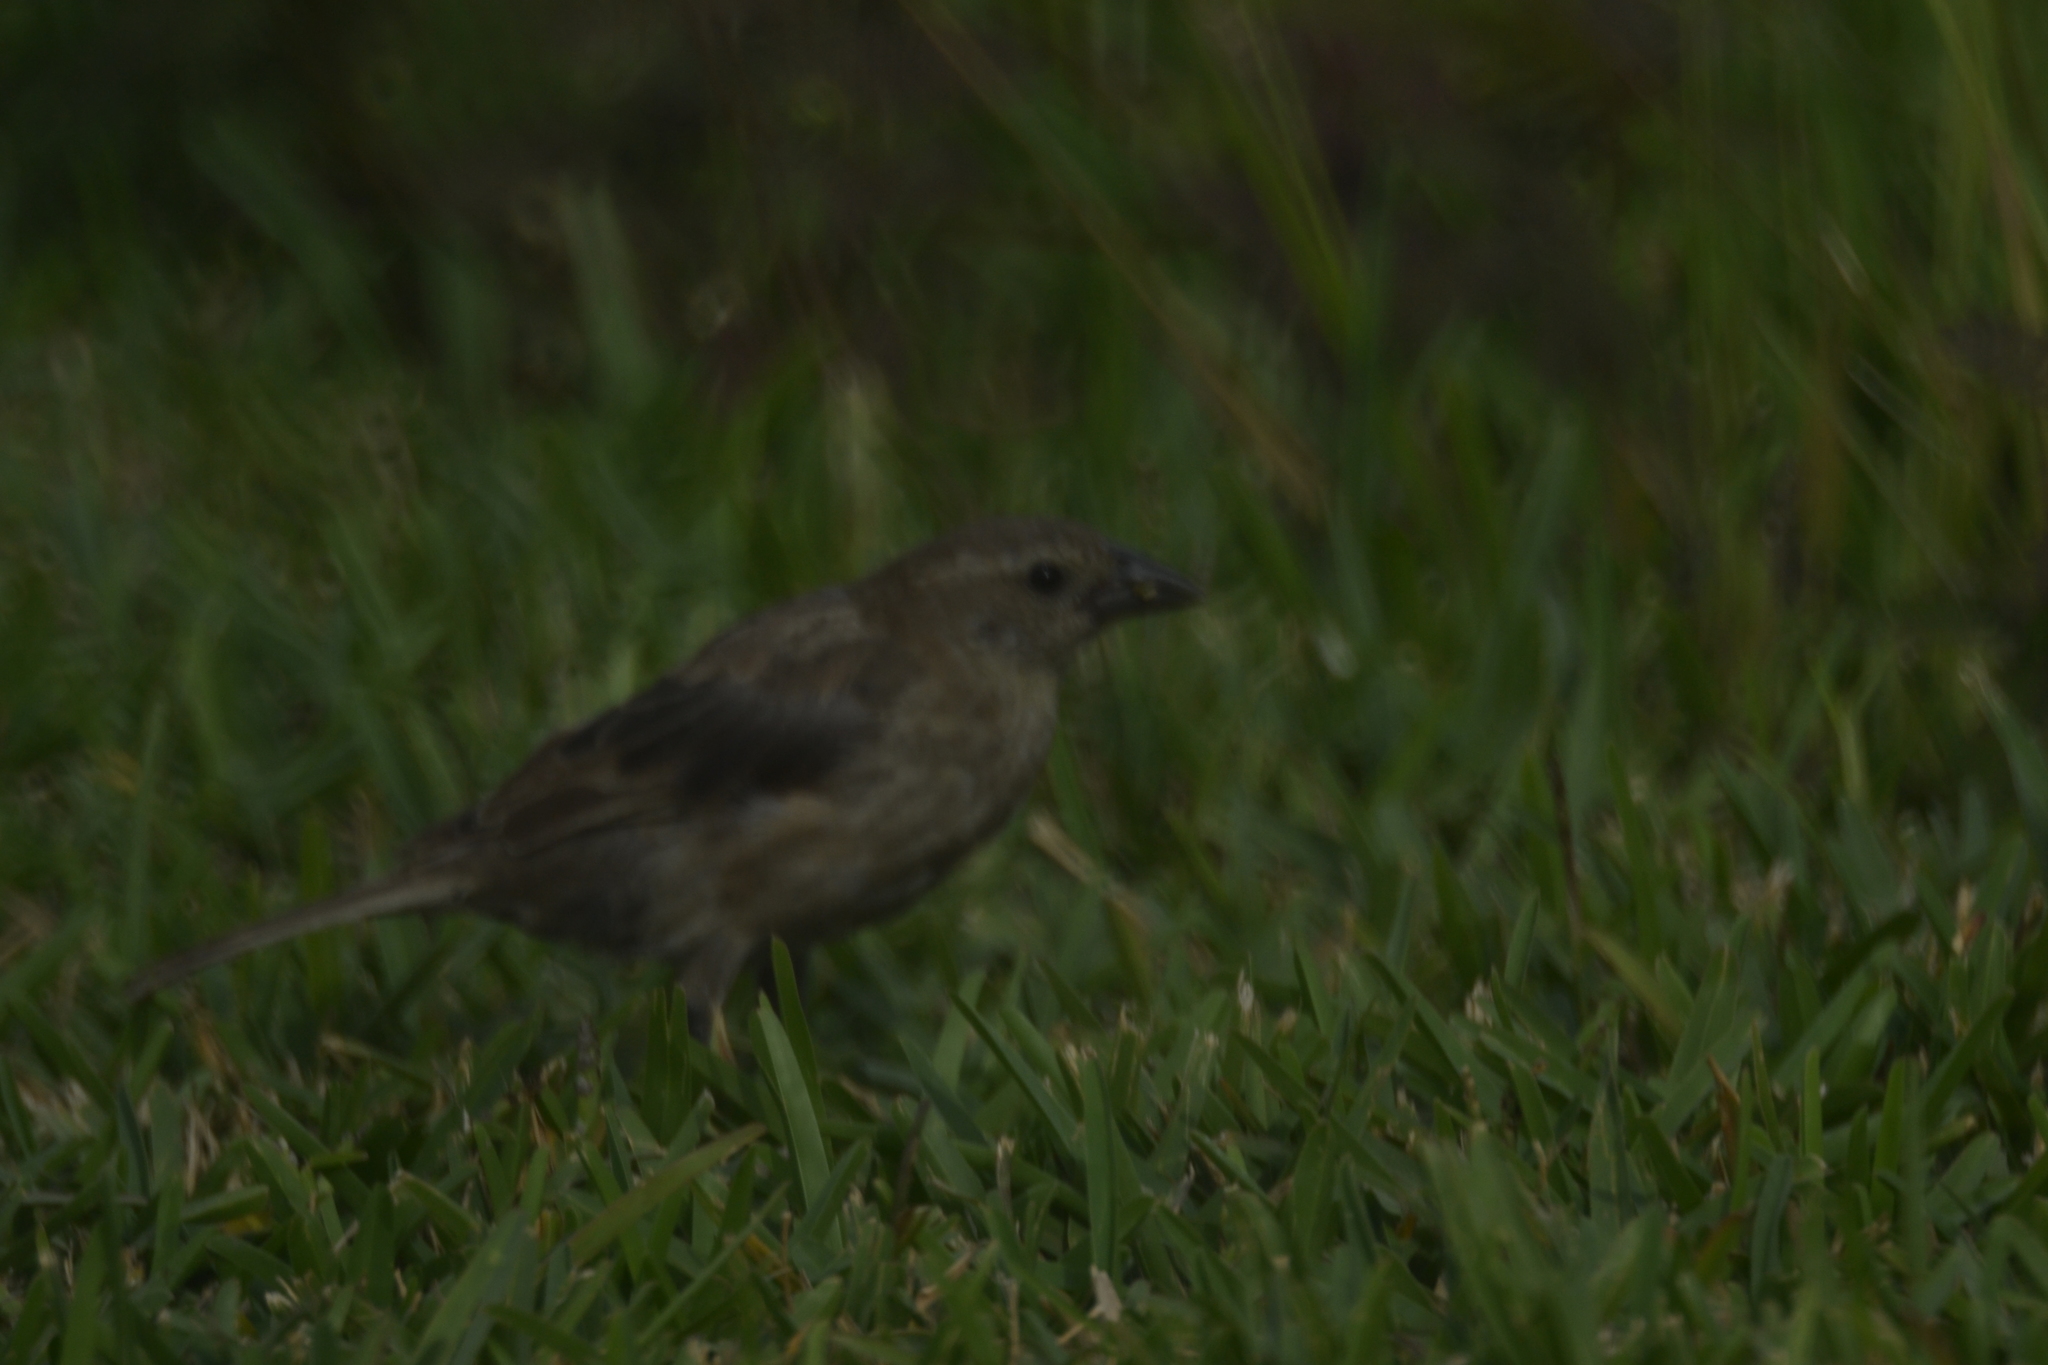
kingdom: Animalia
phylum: Chordata
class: Aves
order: Passeriformes
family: Icteridae
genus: Molothrus
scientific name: Molothrus bonariensis
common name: Shiny cowbird
